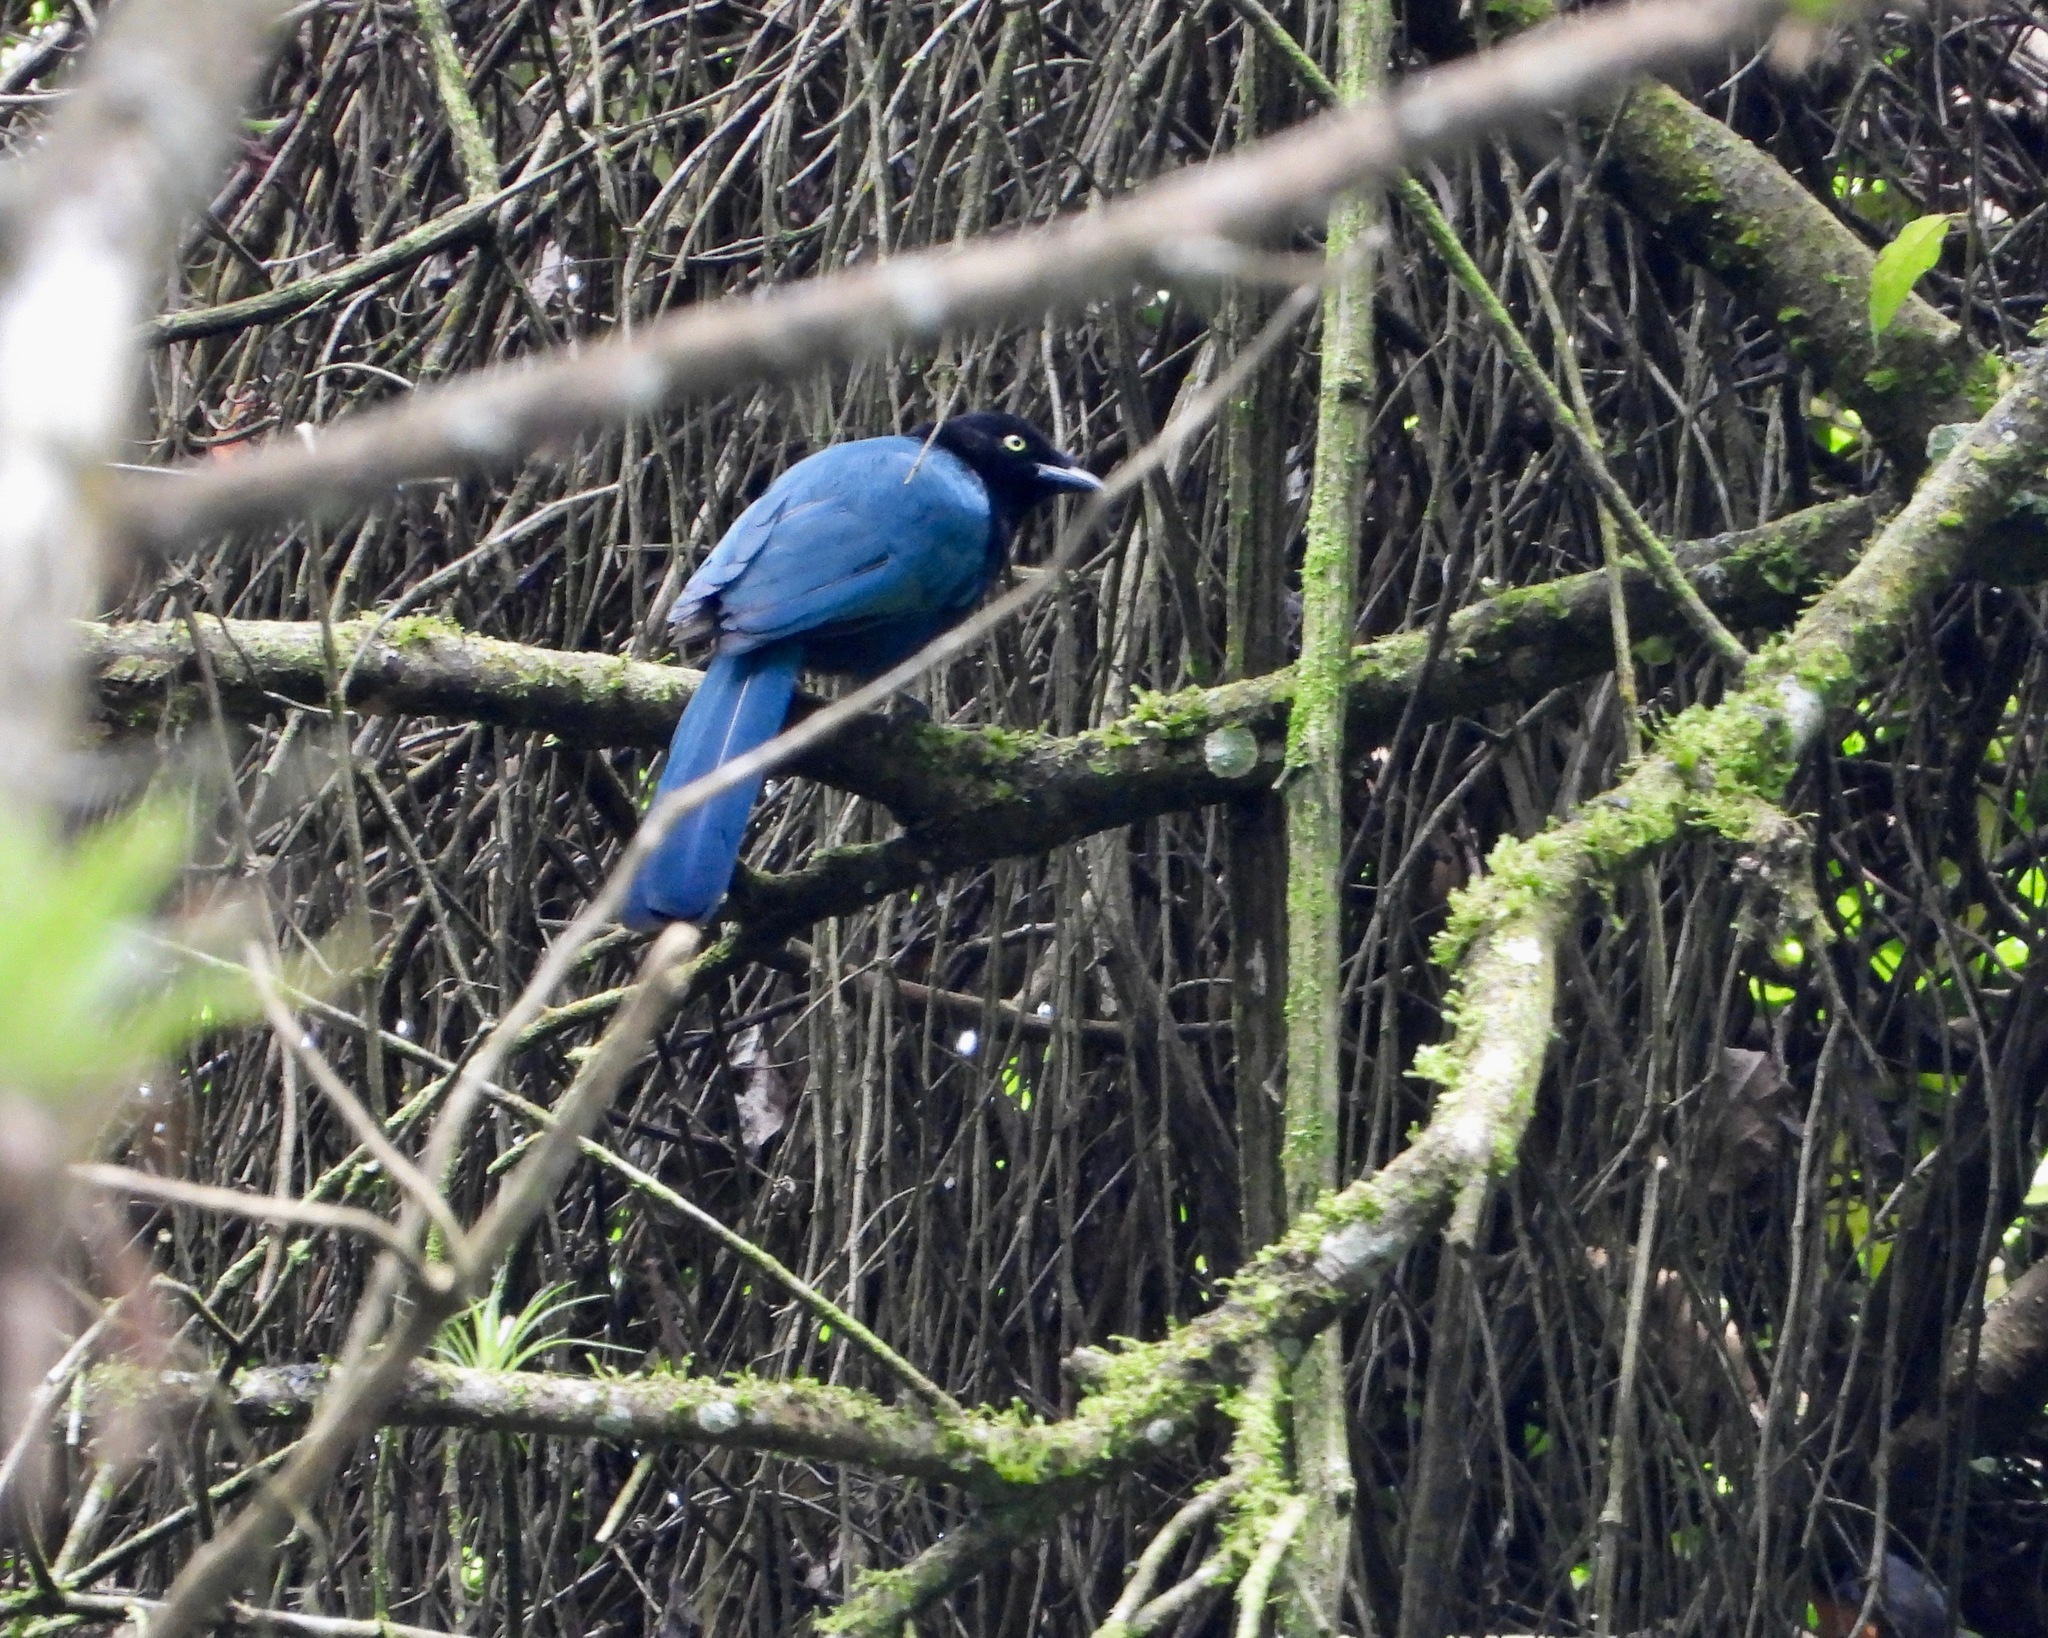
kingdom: Animalia
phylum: Chordata
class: Aves
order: Passeriformes
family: Corvidae
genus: Cyanocorax
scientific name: Cyanocorax melanocyaneus
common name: Bushy-crested jay
